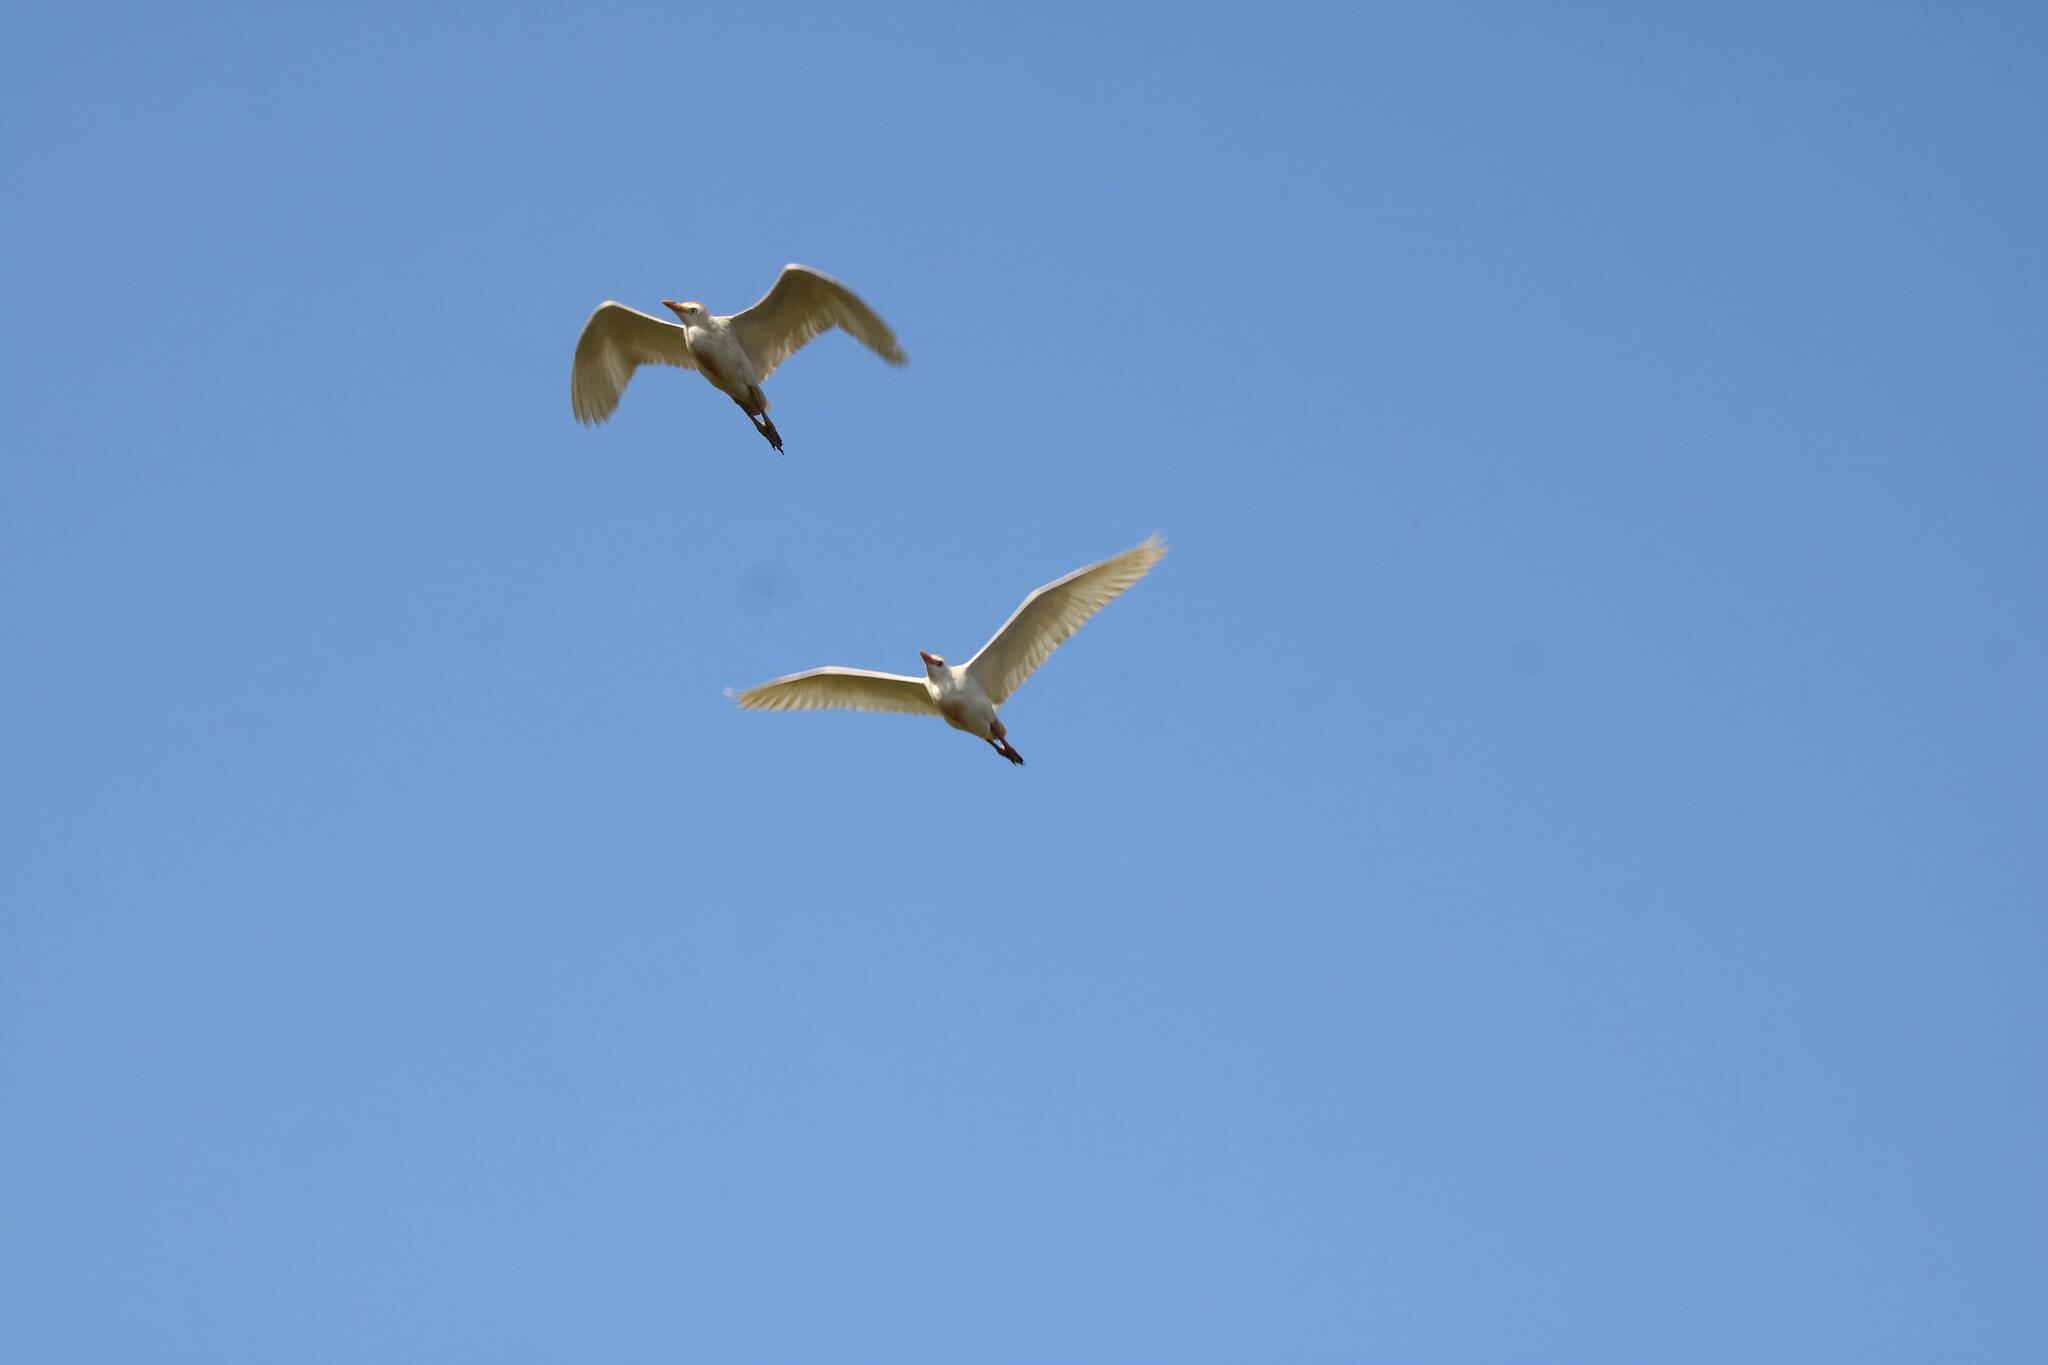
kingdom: Animalia
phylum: Chordata
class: Aves
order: Pelecaniformes
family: Ardeidae
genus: Bubulcus
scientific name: Bubulcus ibis
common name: Cattle egret
